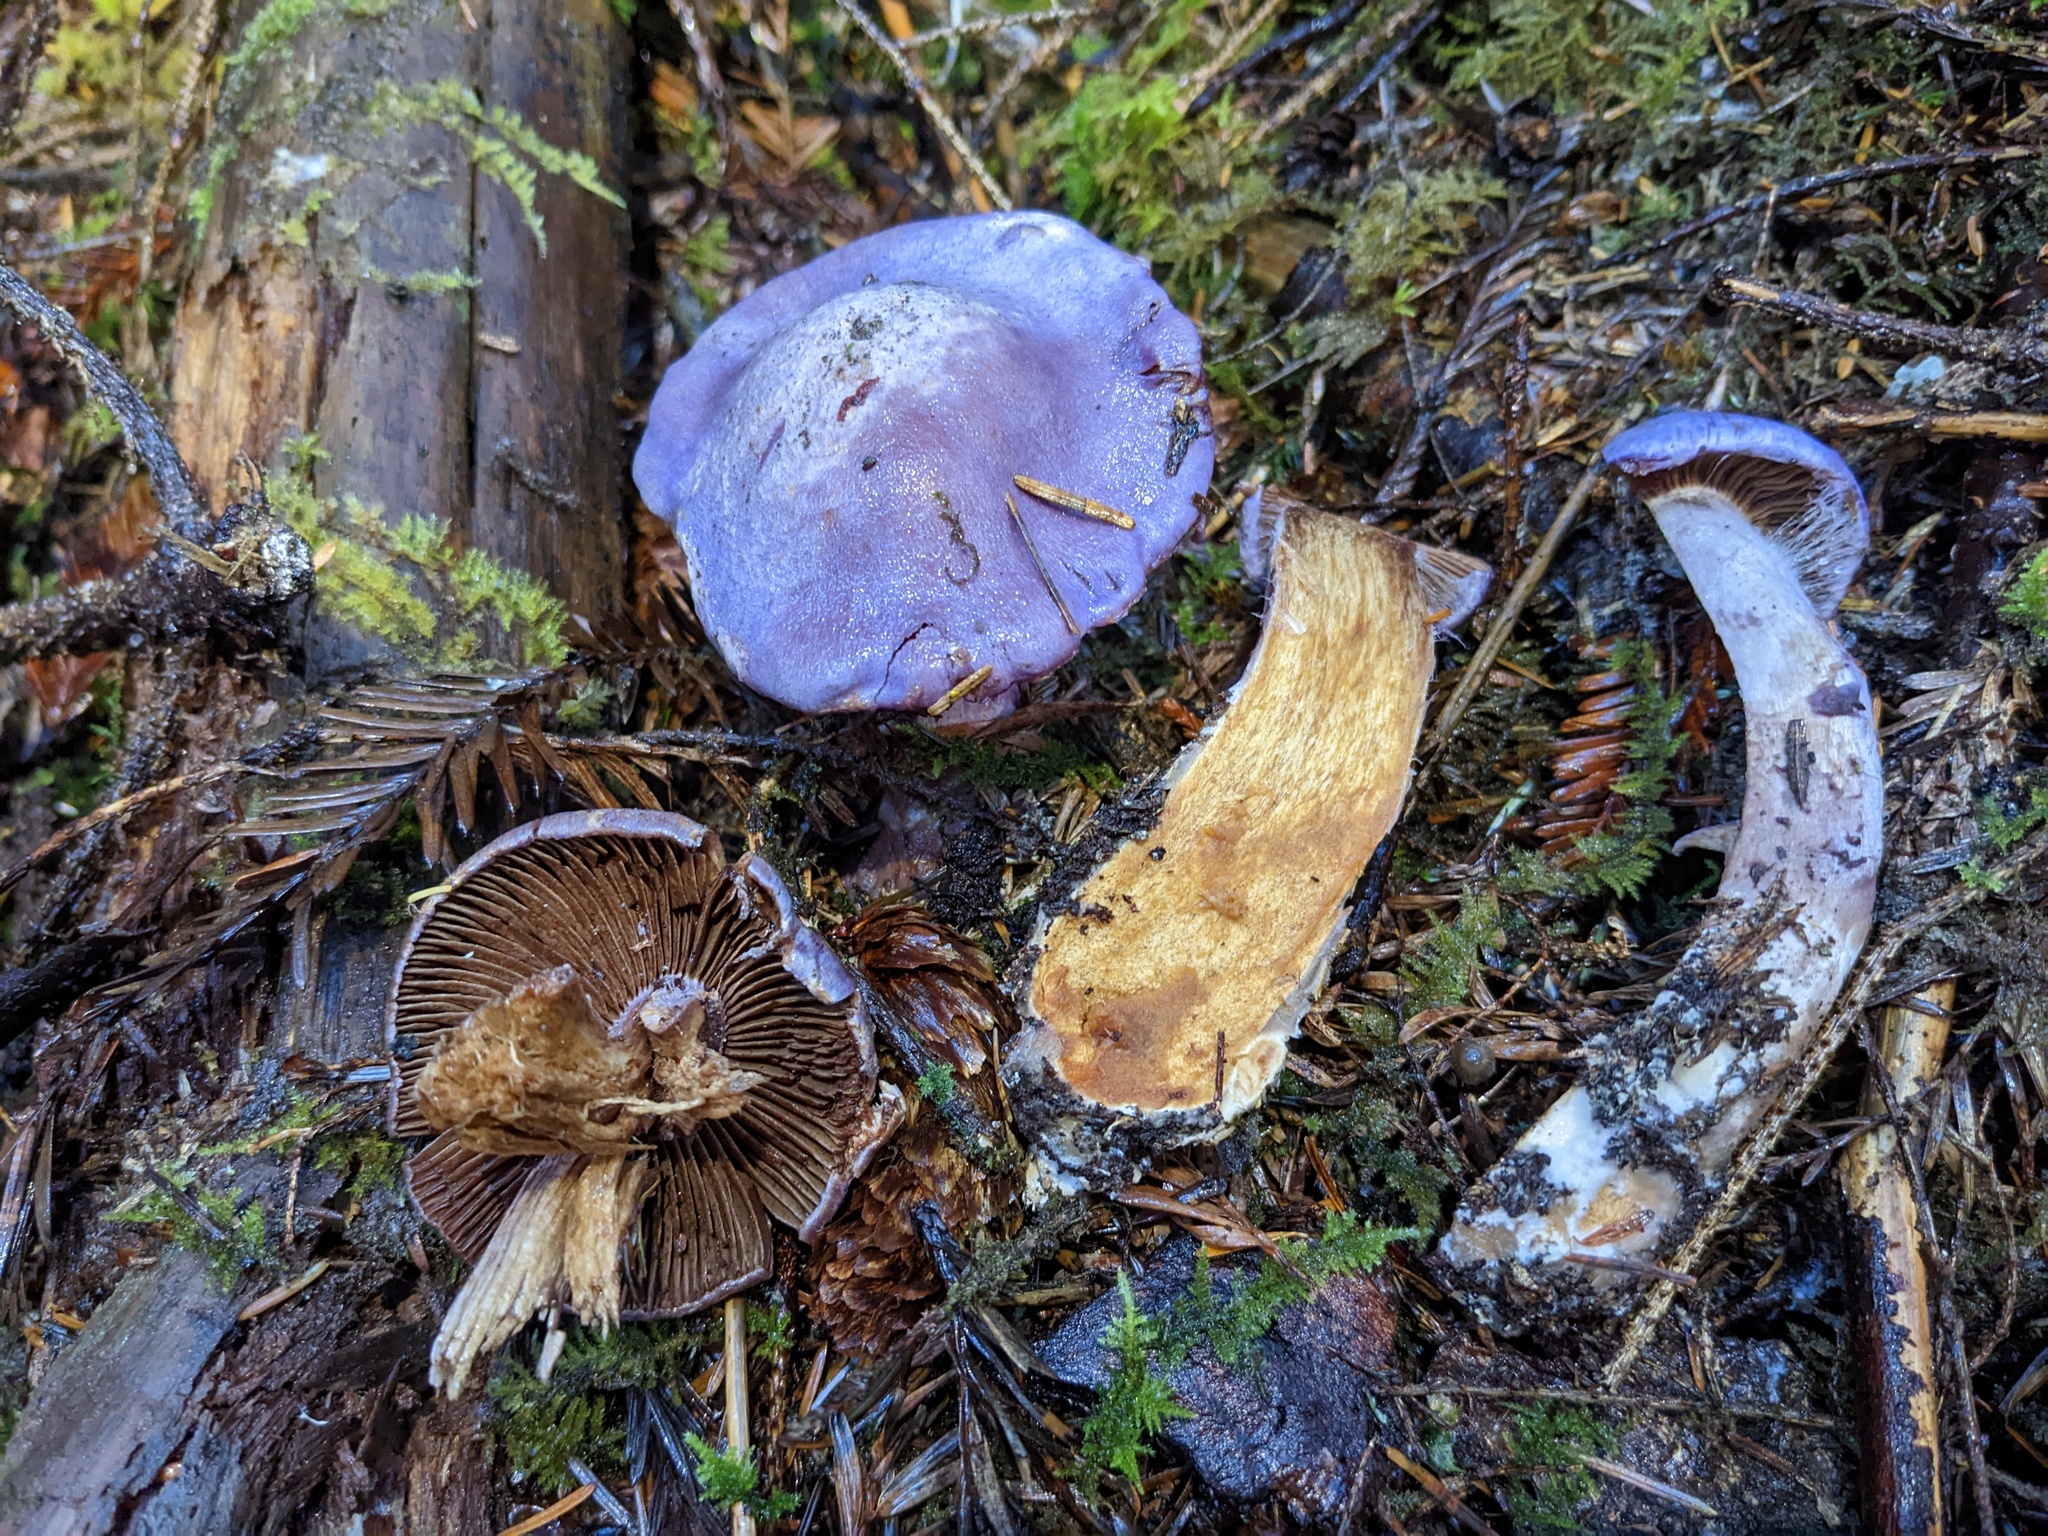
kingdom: Fungi
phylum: Basidiomycota
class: Agaricomycetes
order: Agaricales
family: Cortinariaceae
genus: Cortinarius
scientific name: Cortinarius traganus
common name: Gassy webcap
